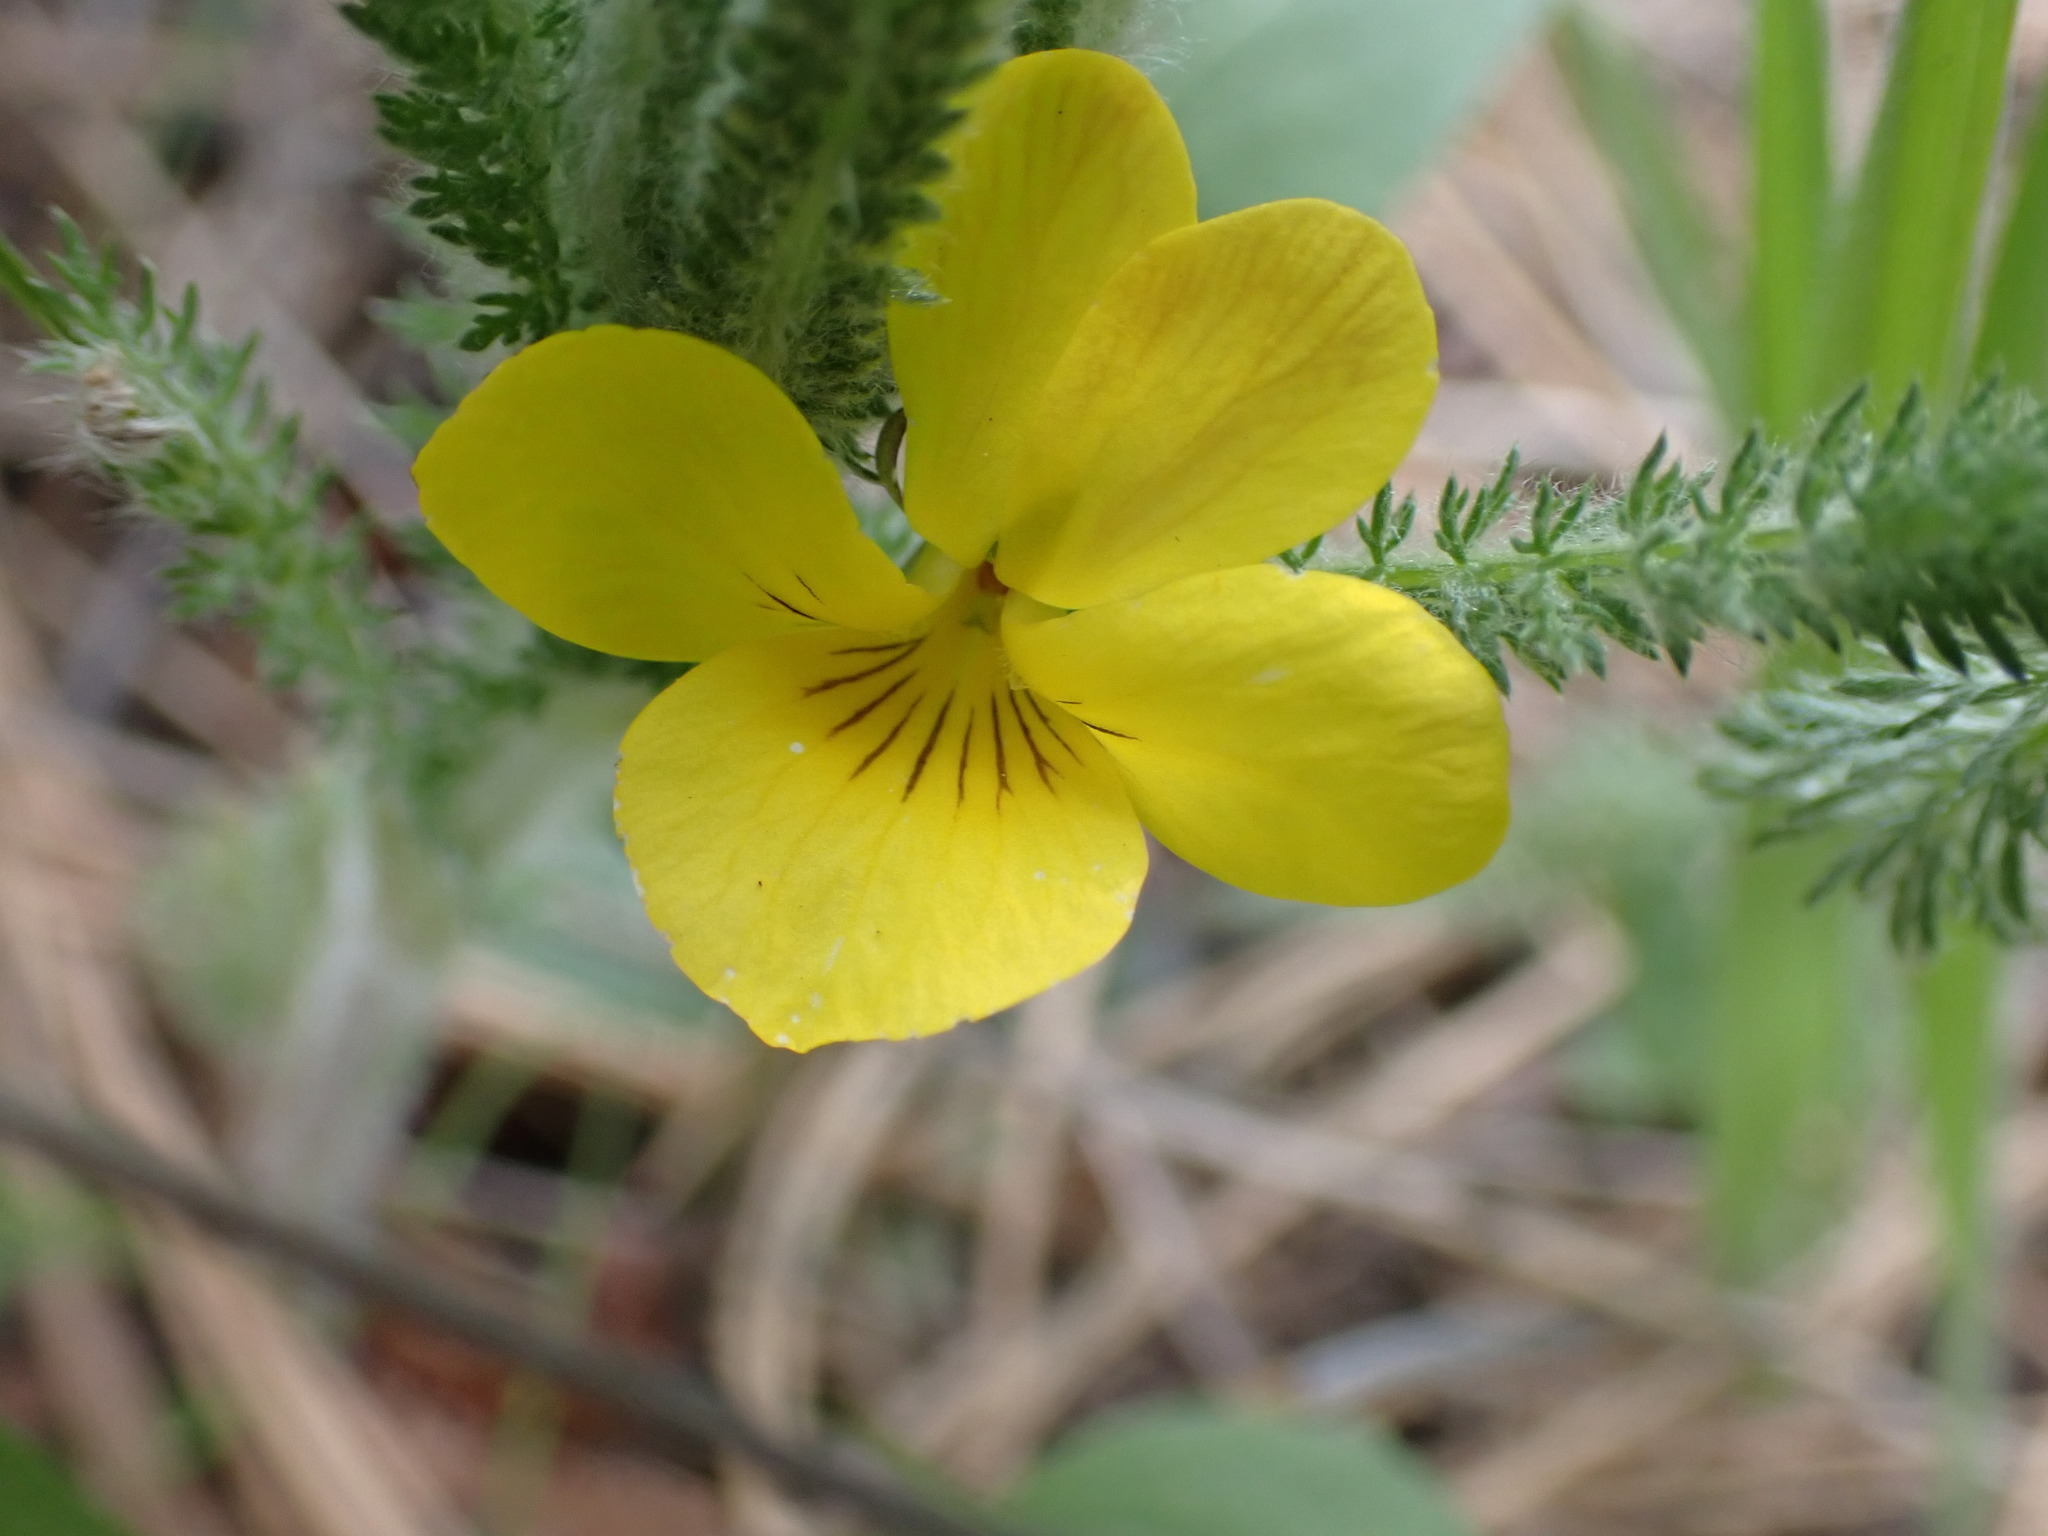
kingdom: Plantae
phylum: Tracheophyta
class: Magnoliopsida
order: Malpighiales
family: Violaceae
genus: Viola
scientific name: Viola vallicola
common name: Valley violet
